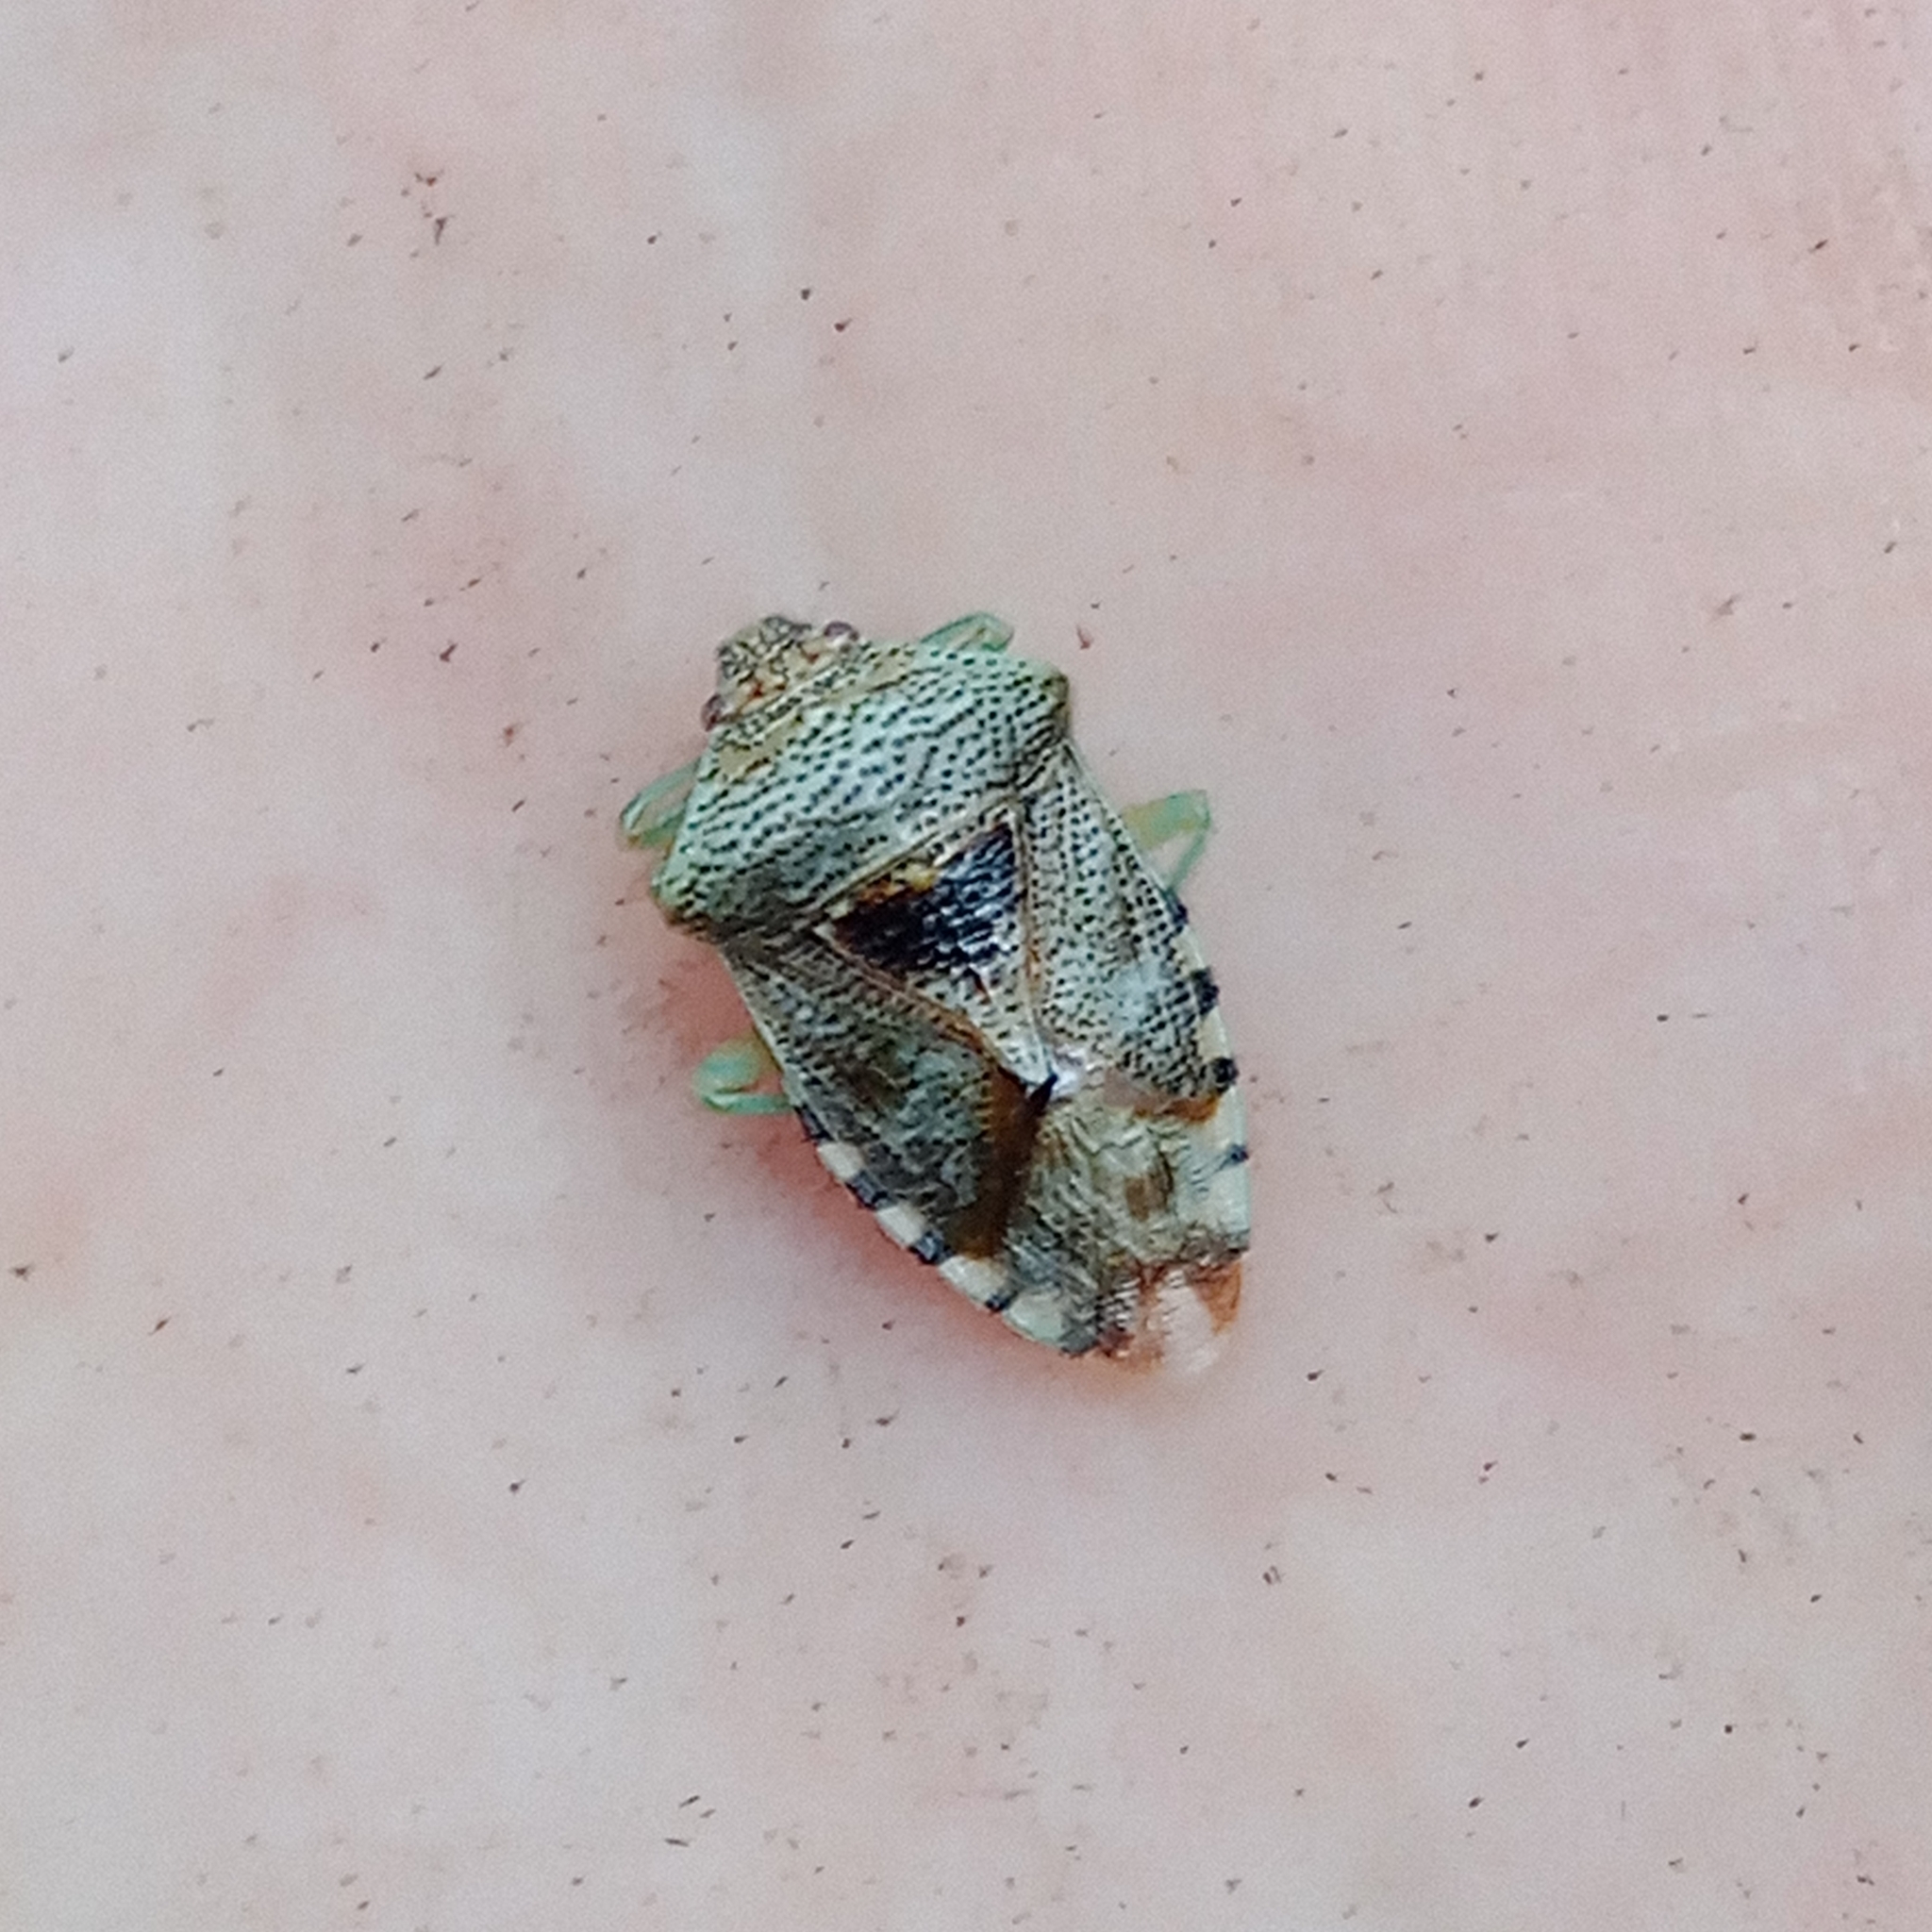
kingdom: Animalia
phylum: Arthropoda
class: Insecta
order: Hemiptera
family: Acanthosomatidae
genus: Elasmucha
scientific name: Elasmucha grisea
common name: Parent bug
